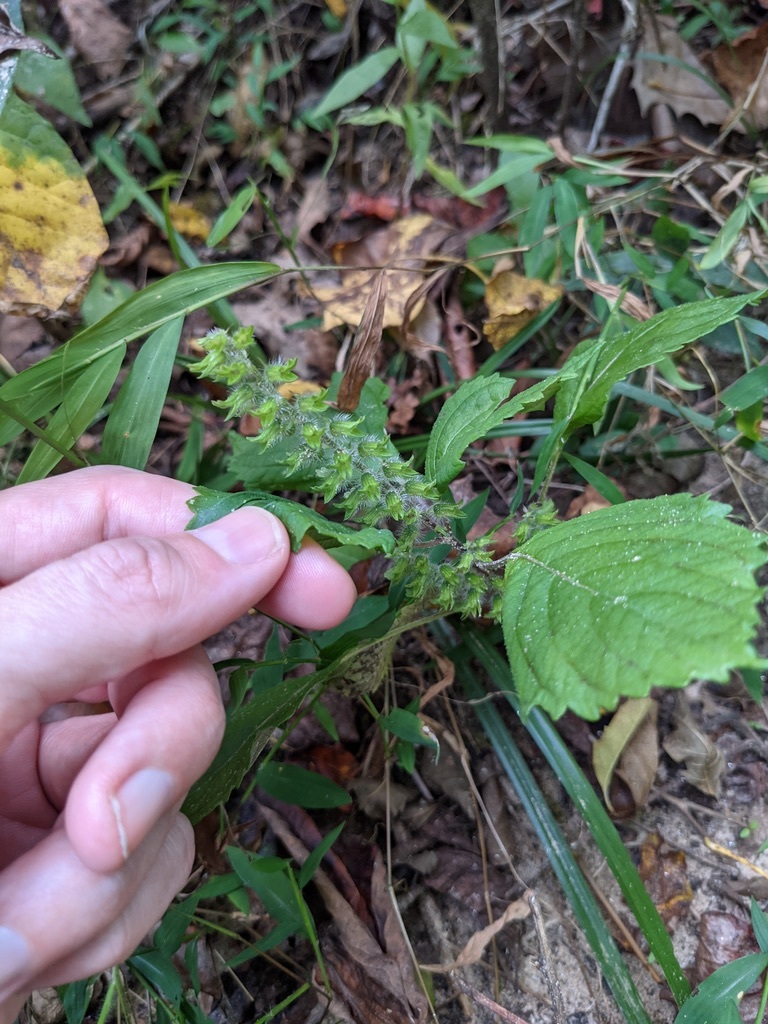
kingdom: Plantae
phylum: Tracheophyta
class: Magnoliopsida
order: Lamiales
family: Lamiaceae
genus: Perilla
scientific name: Perilla frutescens
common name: Perilla
